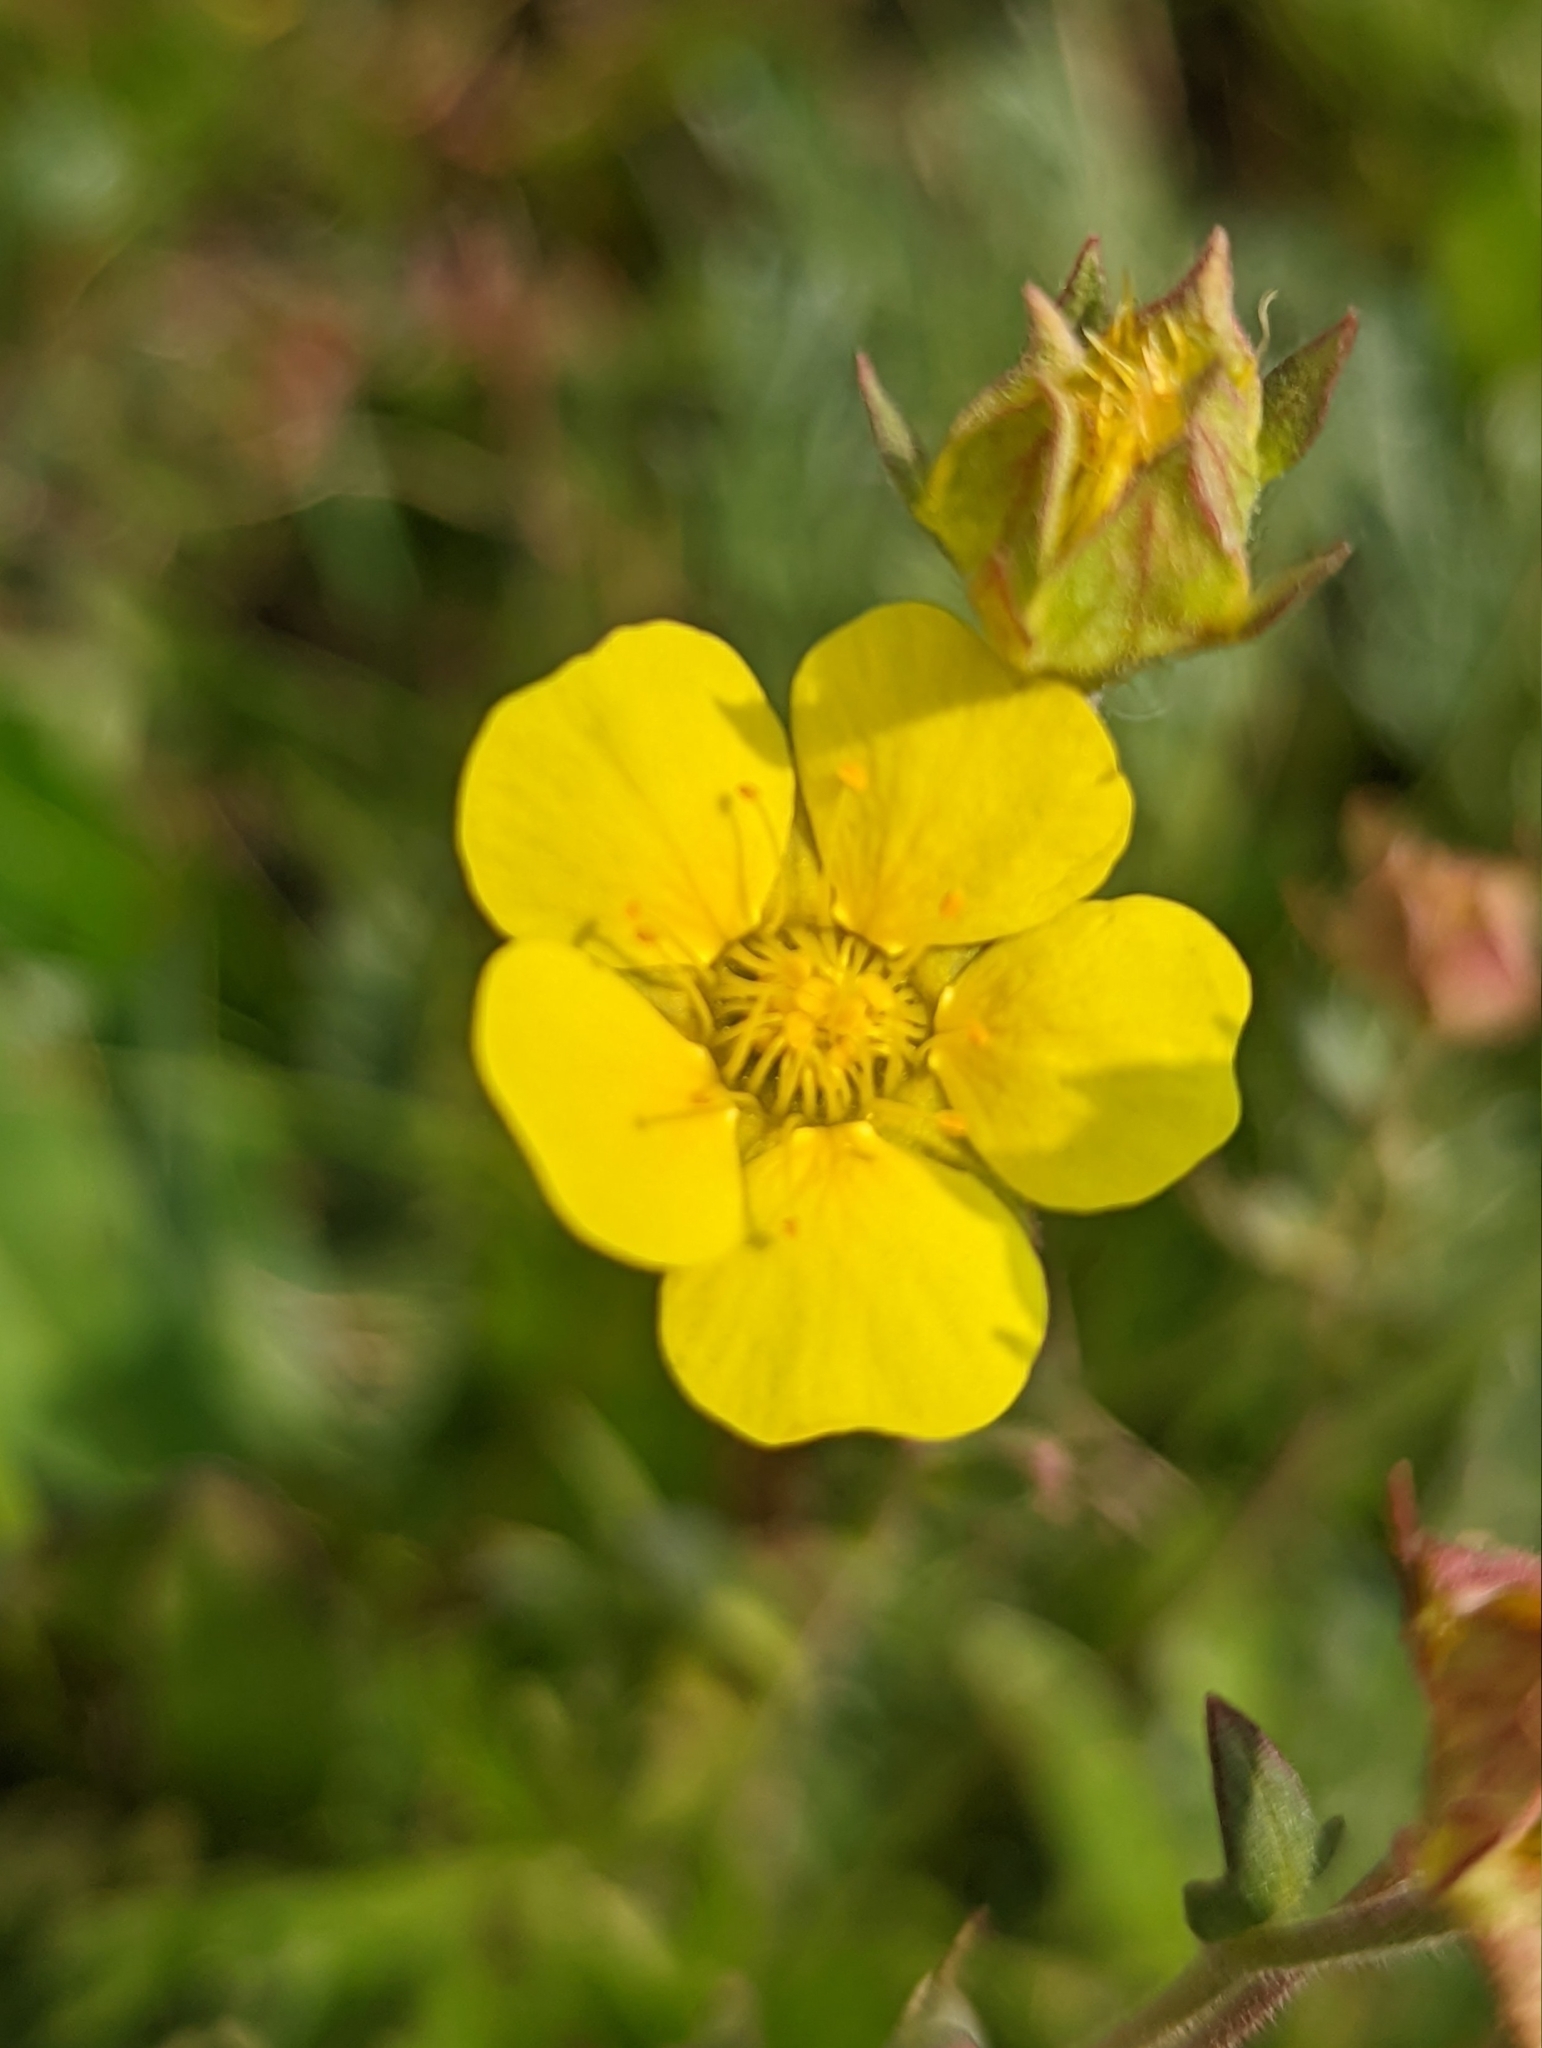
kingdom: Plantae
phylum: Tracheophyta
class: Magnoliopsida
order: Rosales
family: Rosaceae
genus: Geum
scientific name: Geum rossii
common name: Alpine avens
